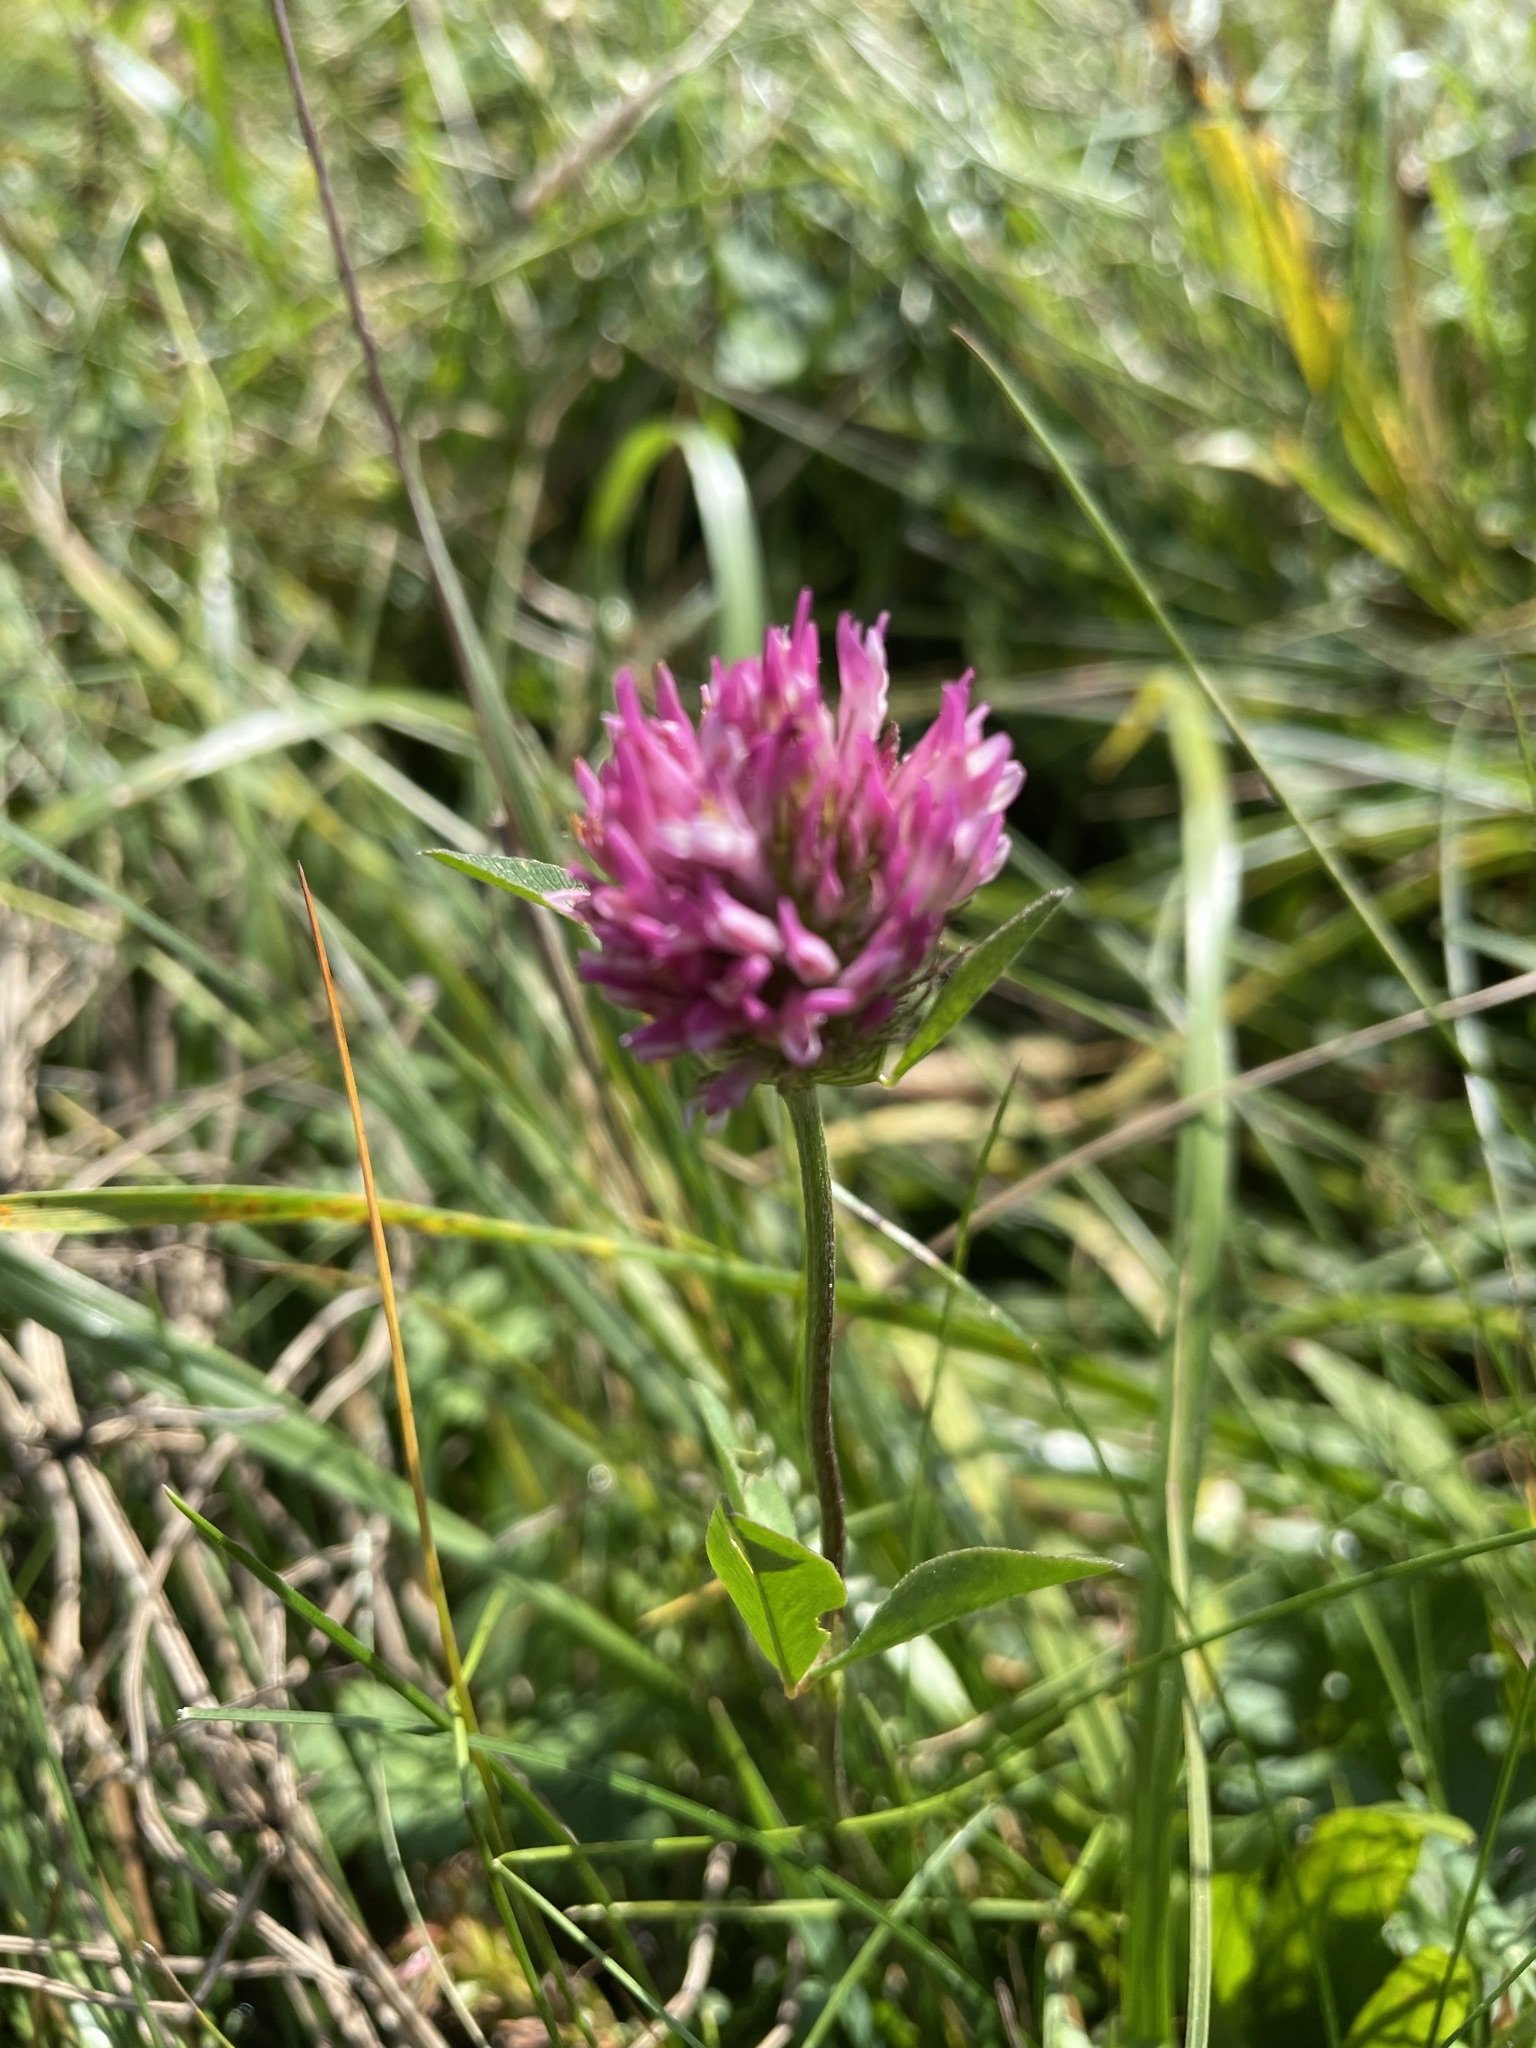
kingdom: Plantae
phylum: Tracheophyta
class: Magnoliopsida
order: Fabales
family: Fabaceae
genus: Trifolium
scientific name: Trifolium pratense
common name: Red clover
